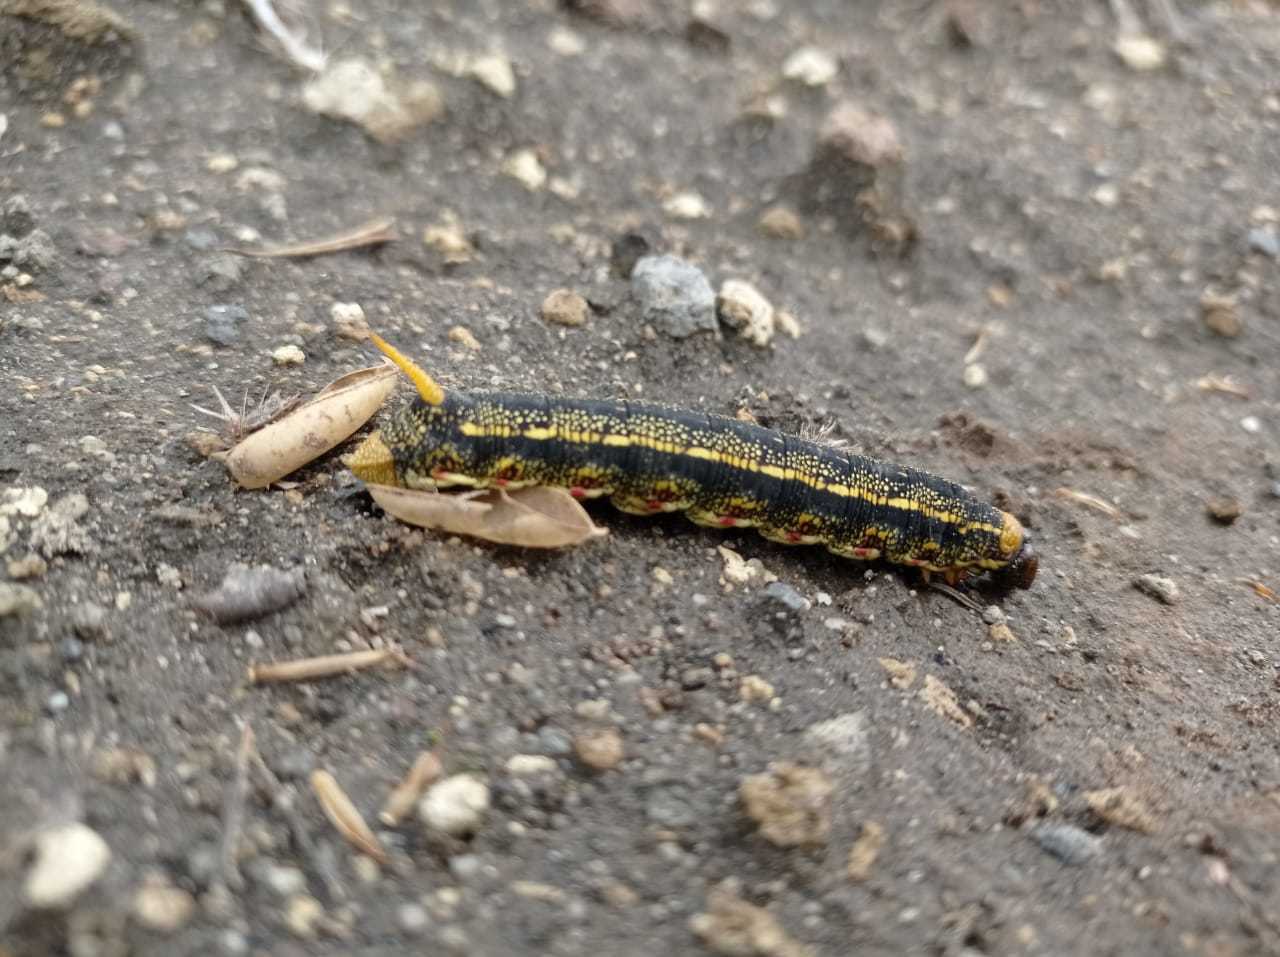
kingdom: Animalia
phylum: Arthropoda
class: Insecta
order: Lepidoptera
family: Sphingidae
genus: Hyles
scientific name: Hyles lineata
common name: White-lined sphinx
